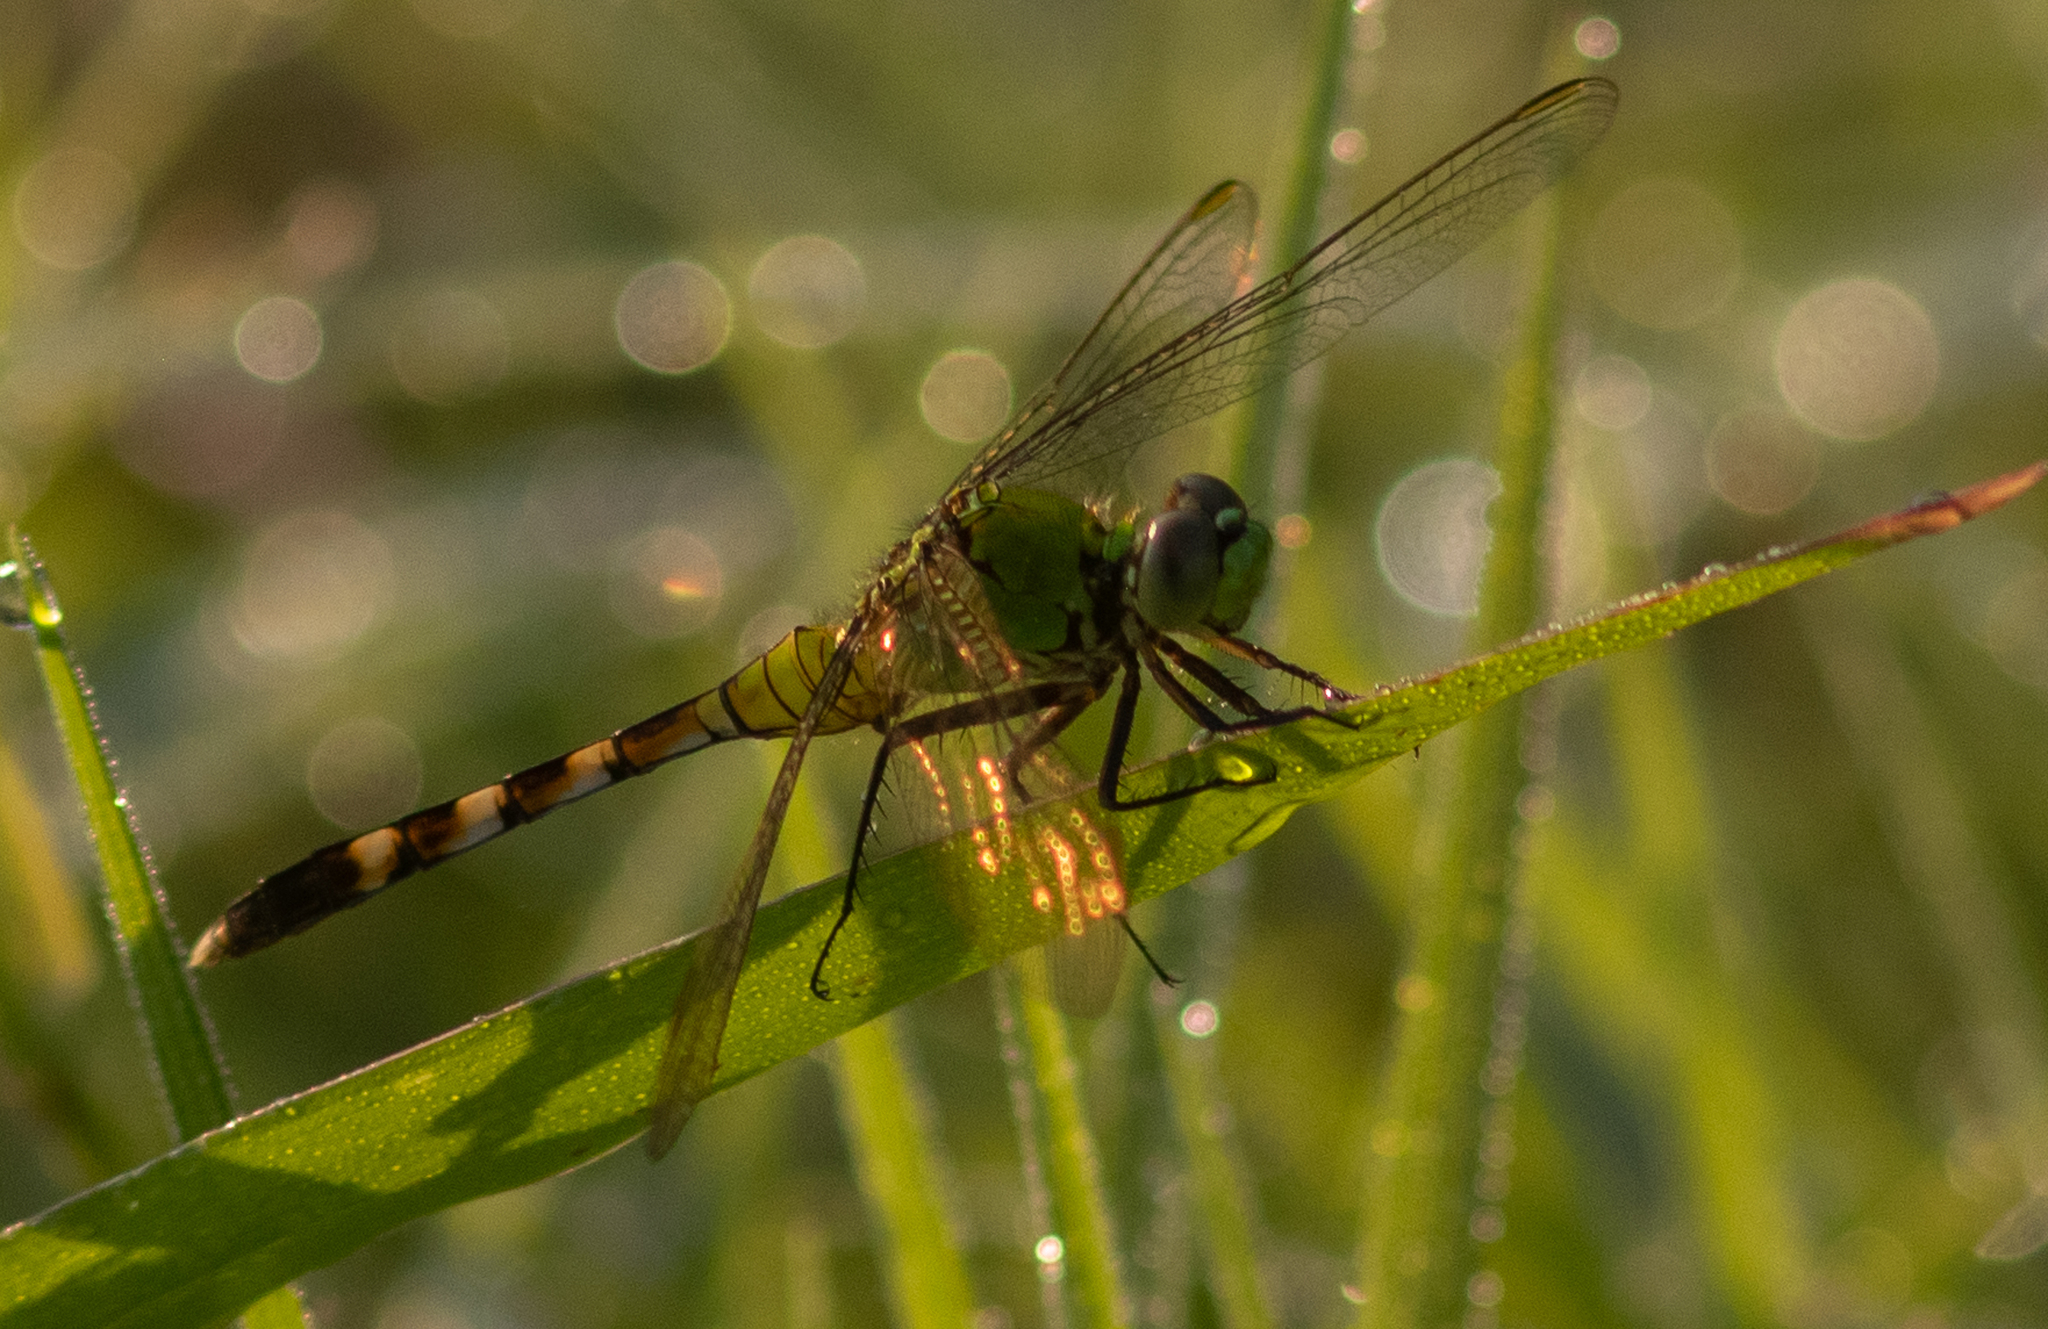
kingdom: Animalia
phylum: Arthropoda
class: Insecta
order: Odonata
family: Libellulidae
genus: Erythemis
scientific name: Erythemis simplicicollis
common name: Eastern pondhawk
